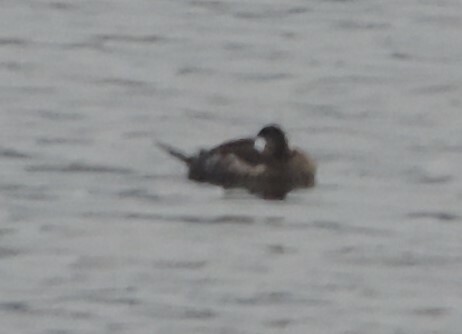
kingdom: Animalia
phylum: Chordata
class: Aves
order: Anseriformes
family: Anatidae
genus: Oxyura
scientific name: Oxyura jamaicensis
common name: Ruddy duck
